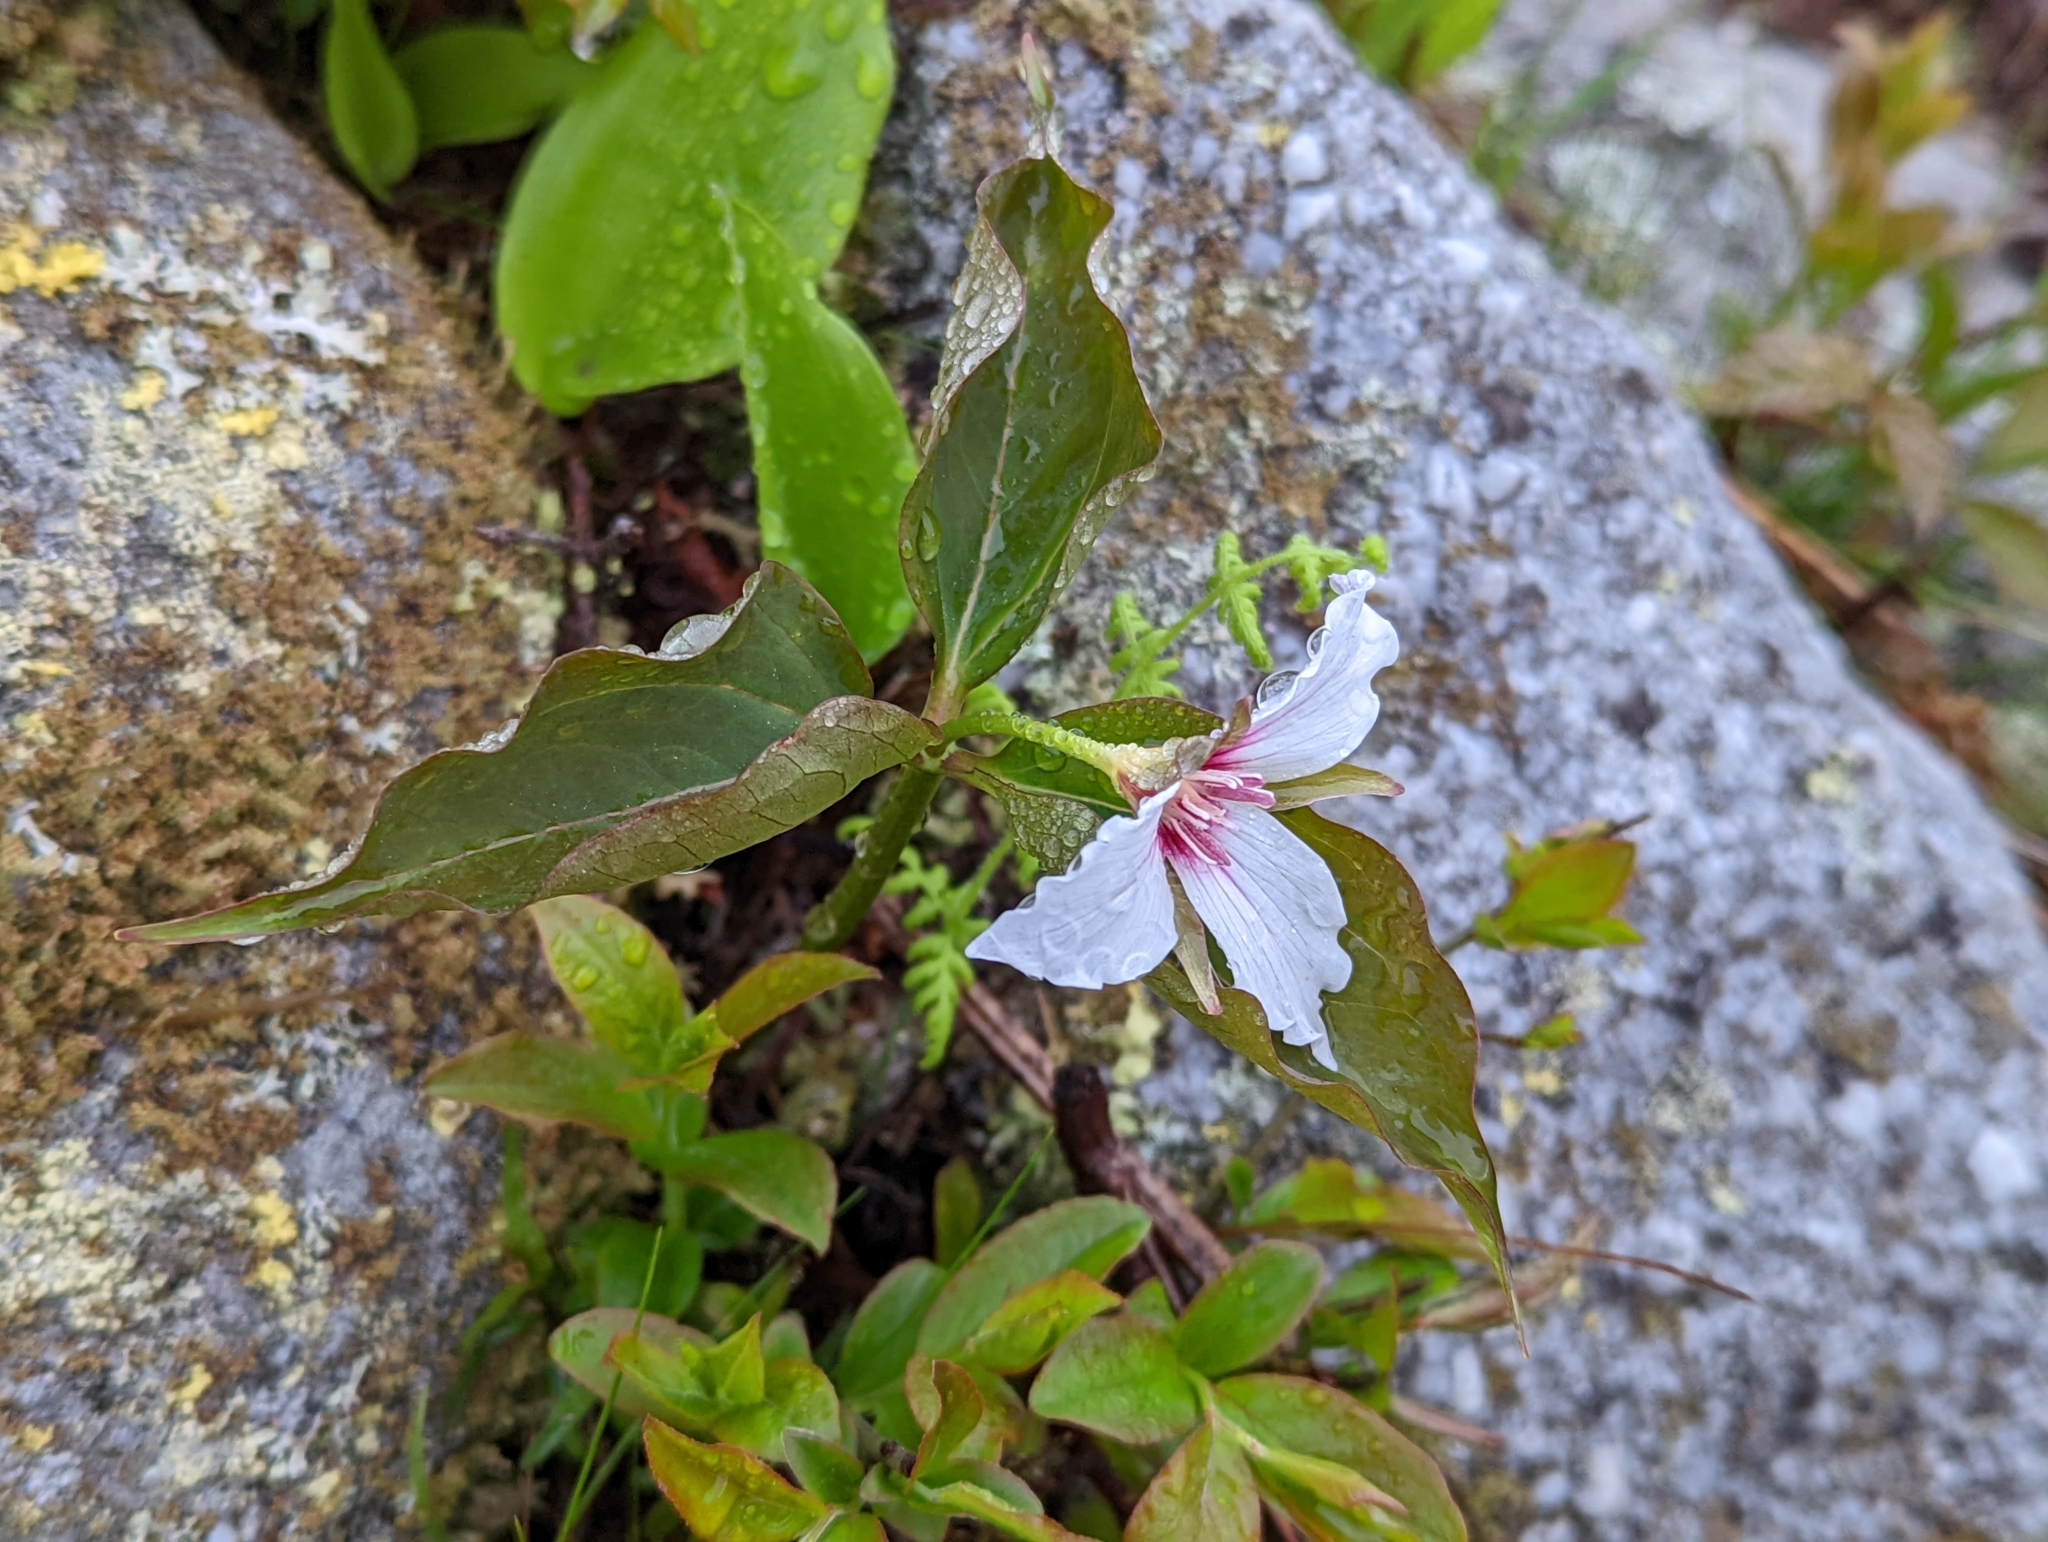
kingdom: Plantae
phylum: Tracheophyta
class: Liliopsida
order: Liliales
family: Melanthiaceae
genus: Trillium
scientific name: Trillium undulatum
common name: Paint trillium
